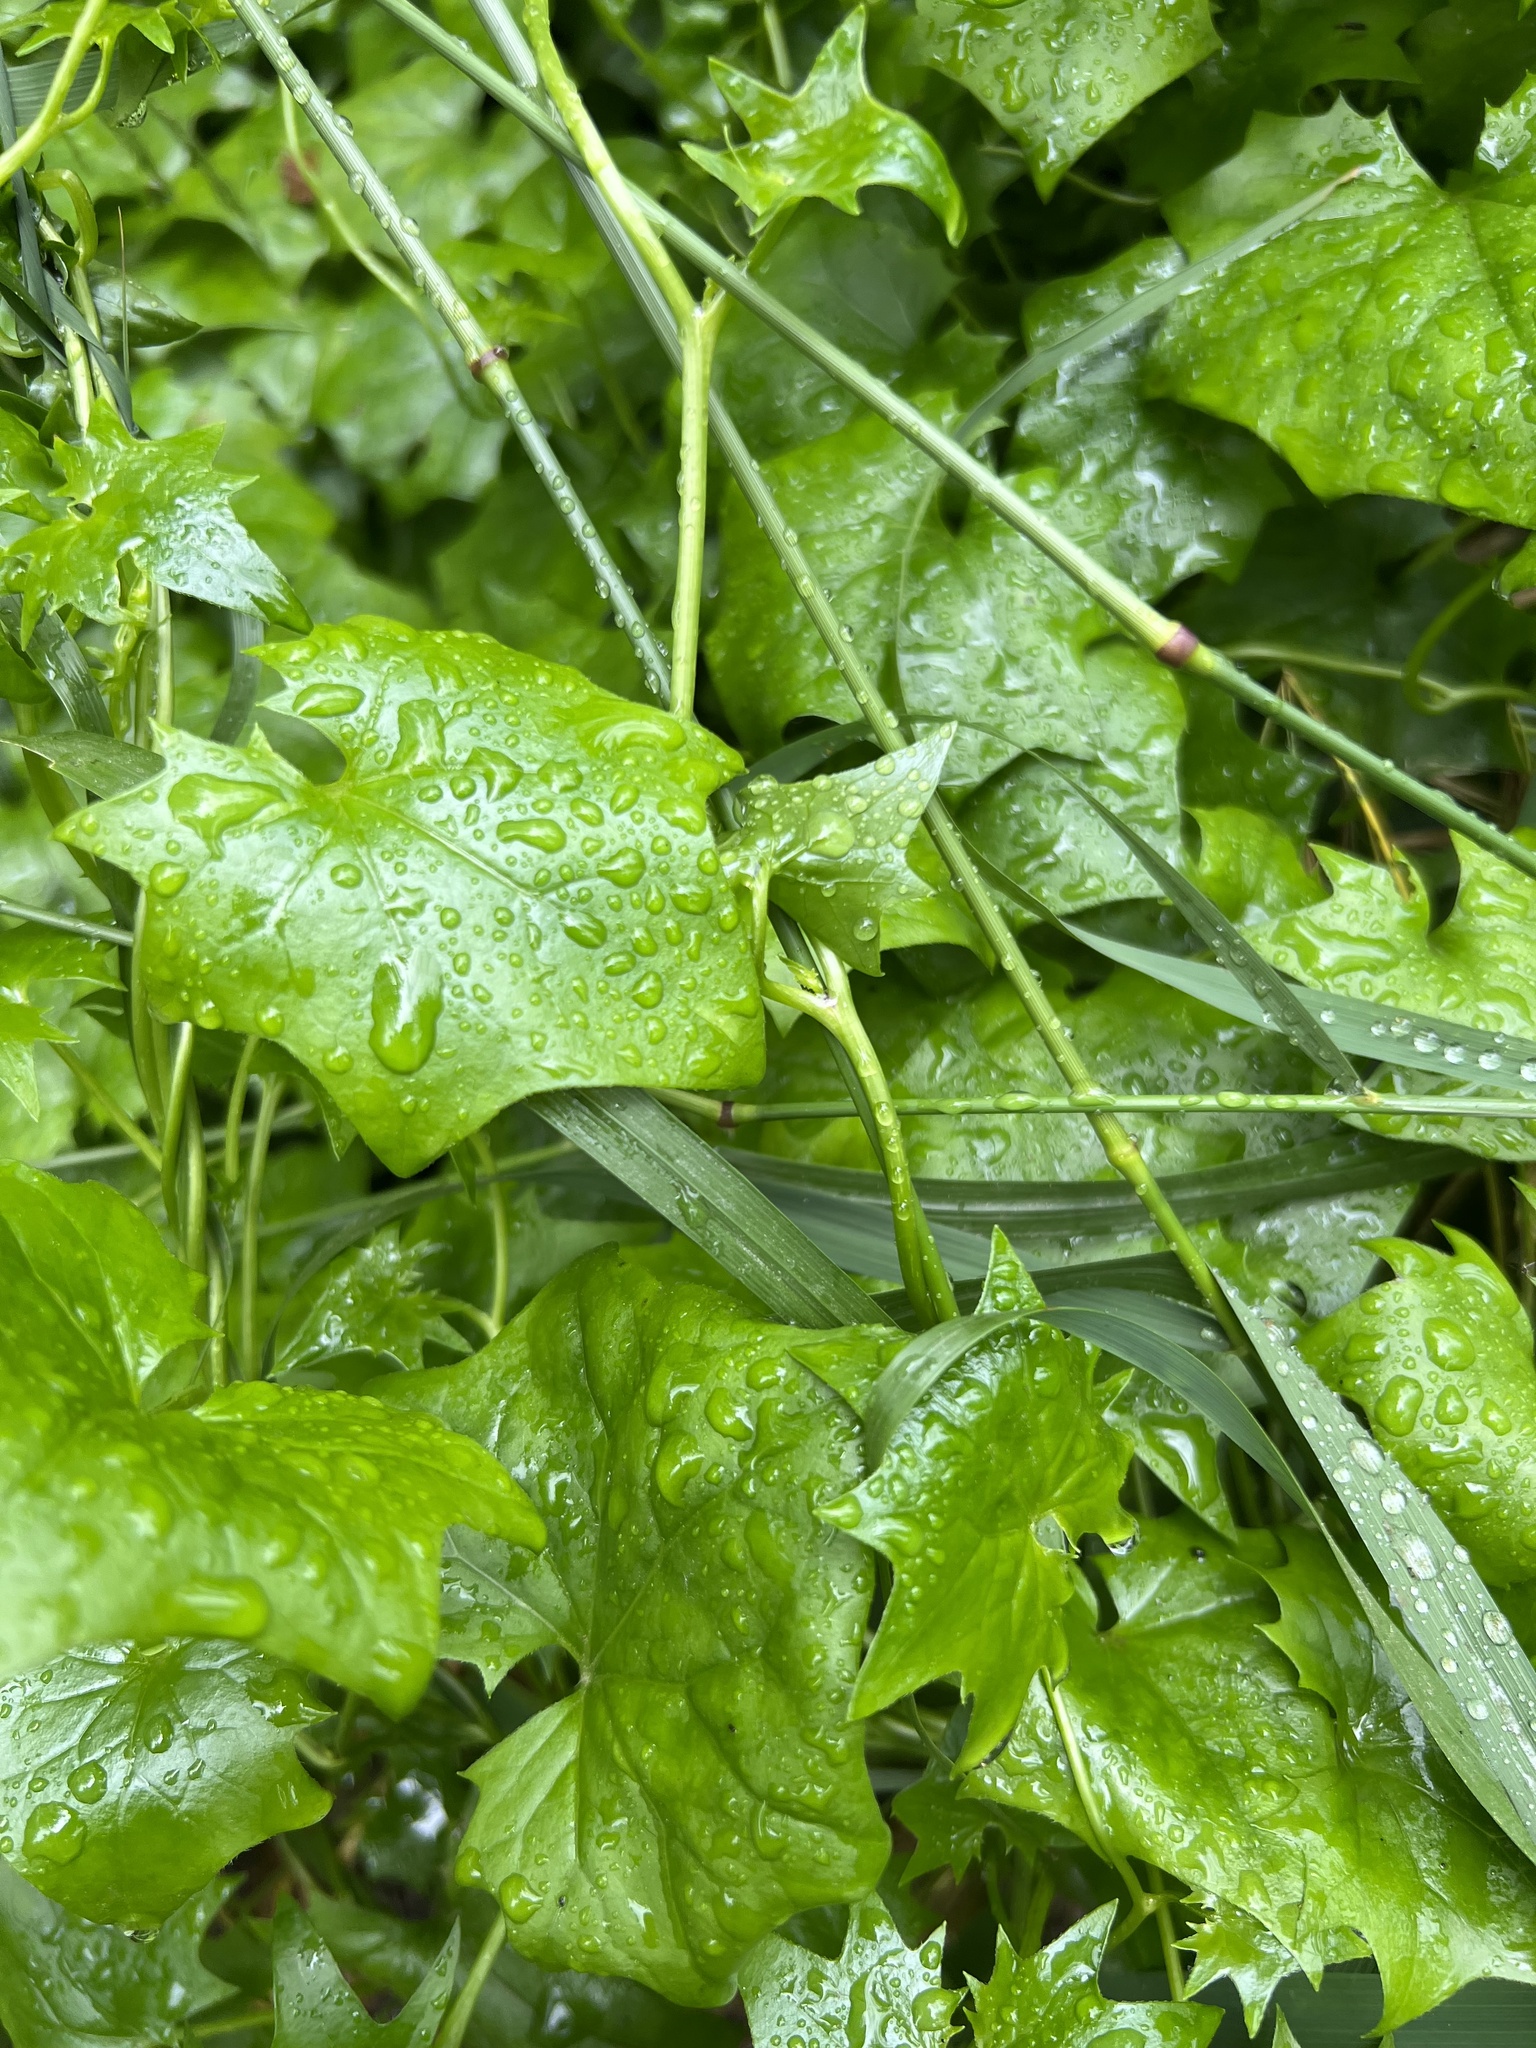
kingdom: Plantae
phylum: Tracheophyta
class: Magnoliopsida
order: Asterales
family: Asteraceae
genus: Delairea
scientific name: Delairea odorata
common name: Cape-ivy
